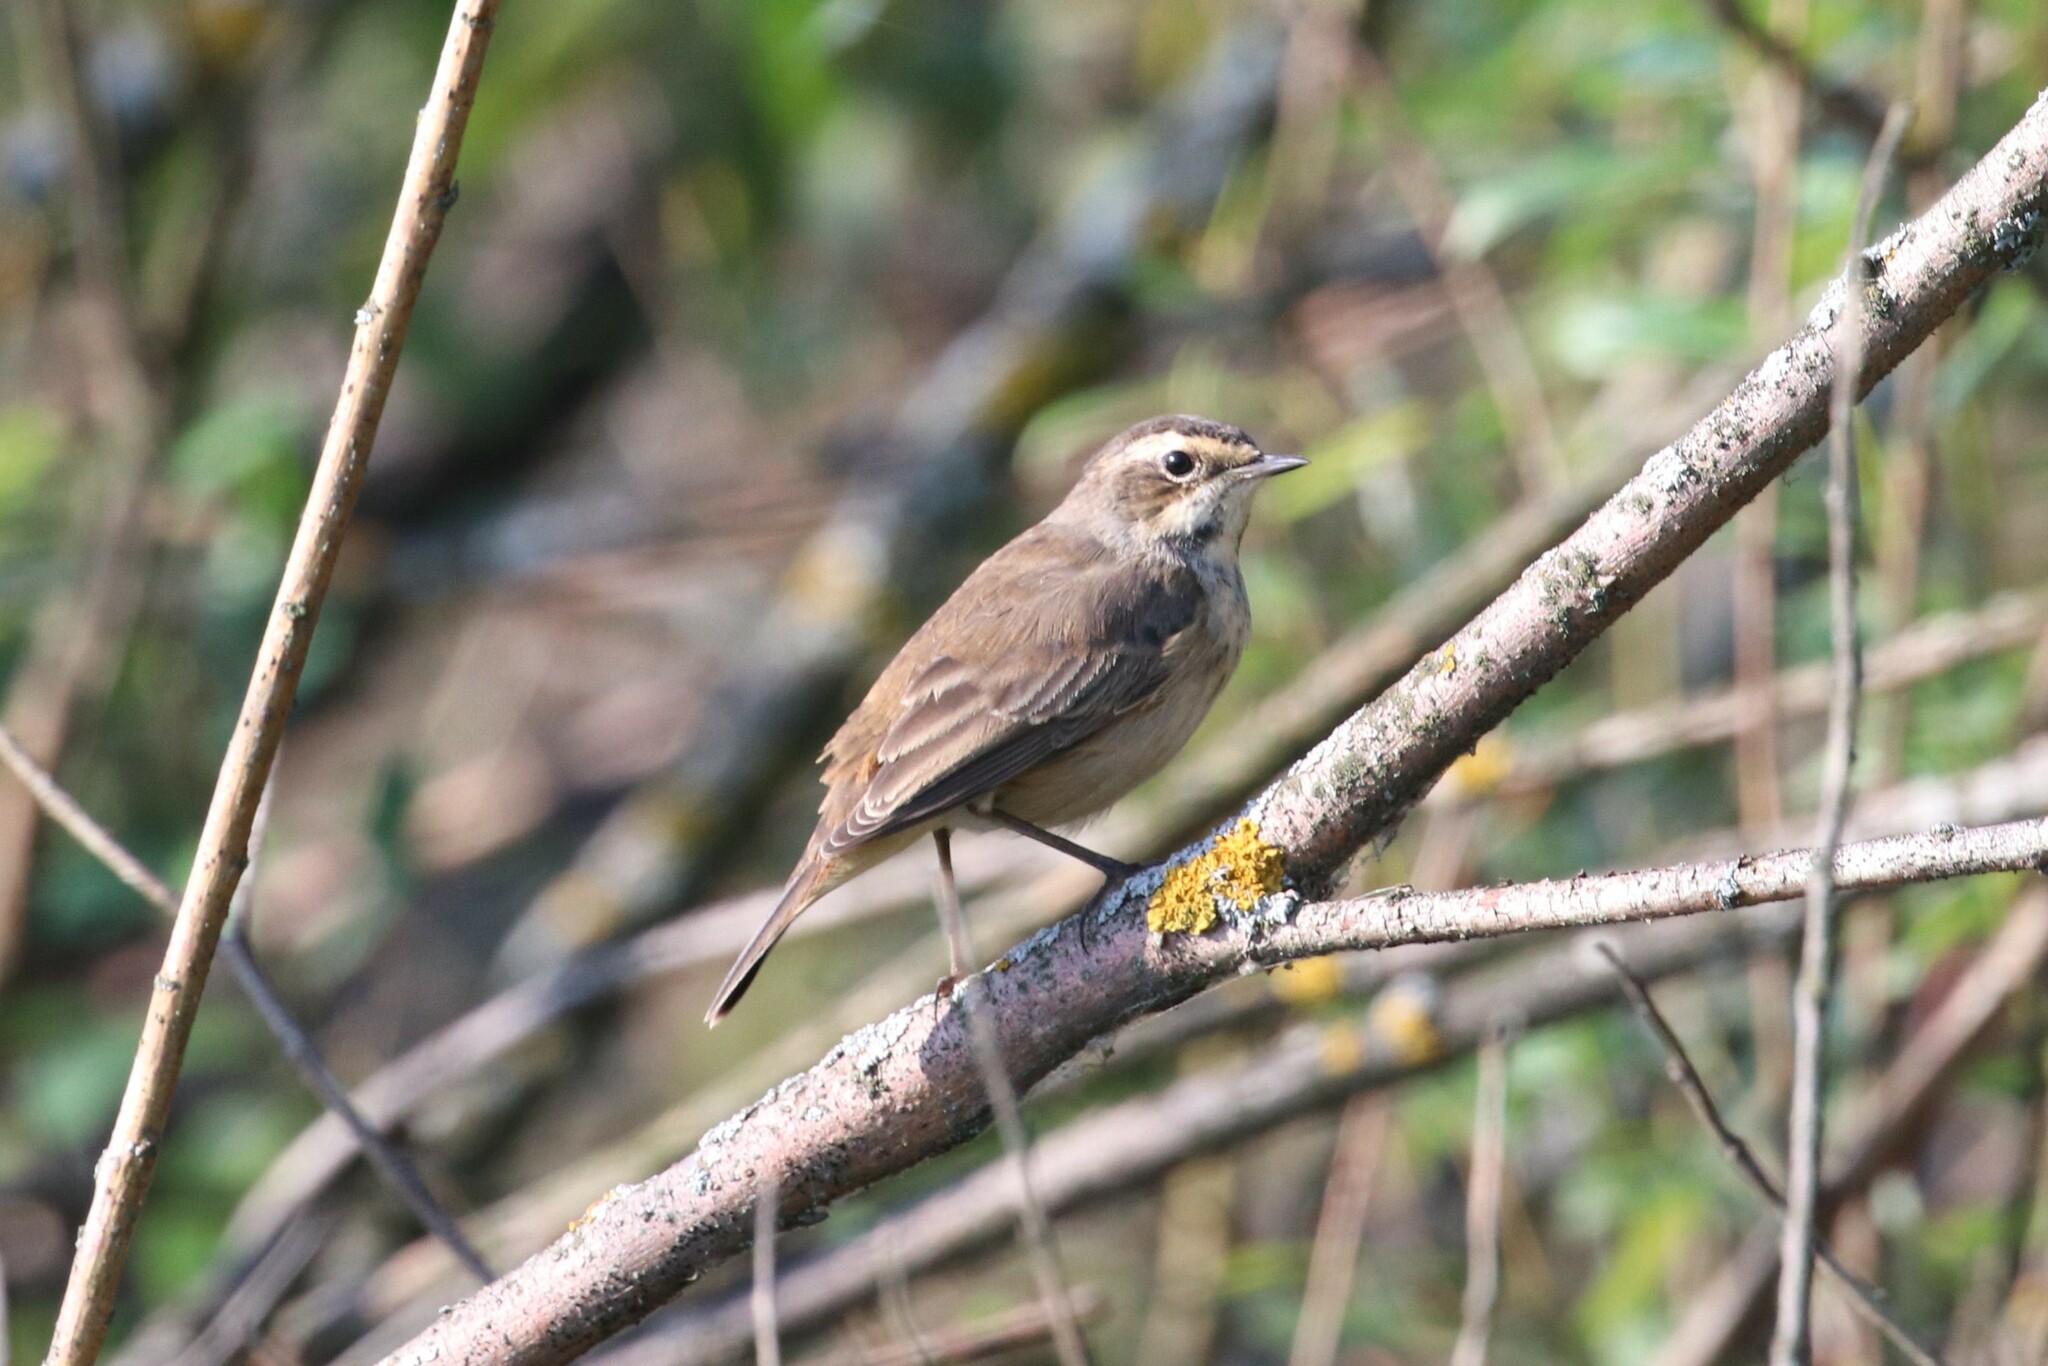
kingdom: Animalia
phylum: Chordata
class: Aves
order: Passeriformes
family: Muscicapidae
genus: Luscinia
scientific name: Luscinia svecica
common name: Bluethroat
